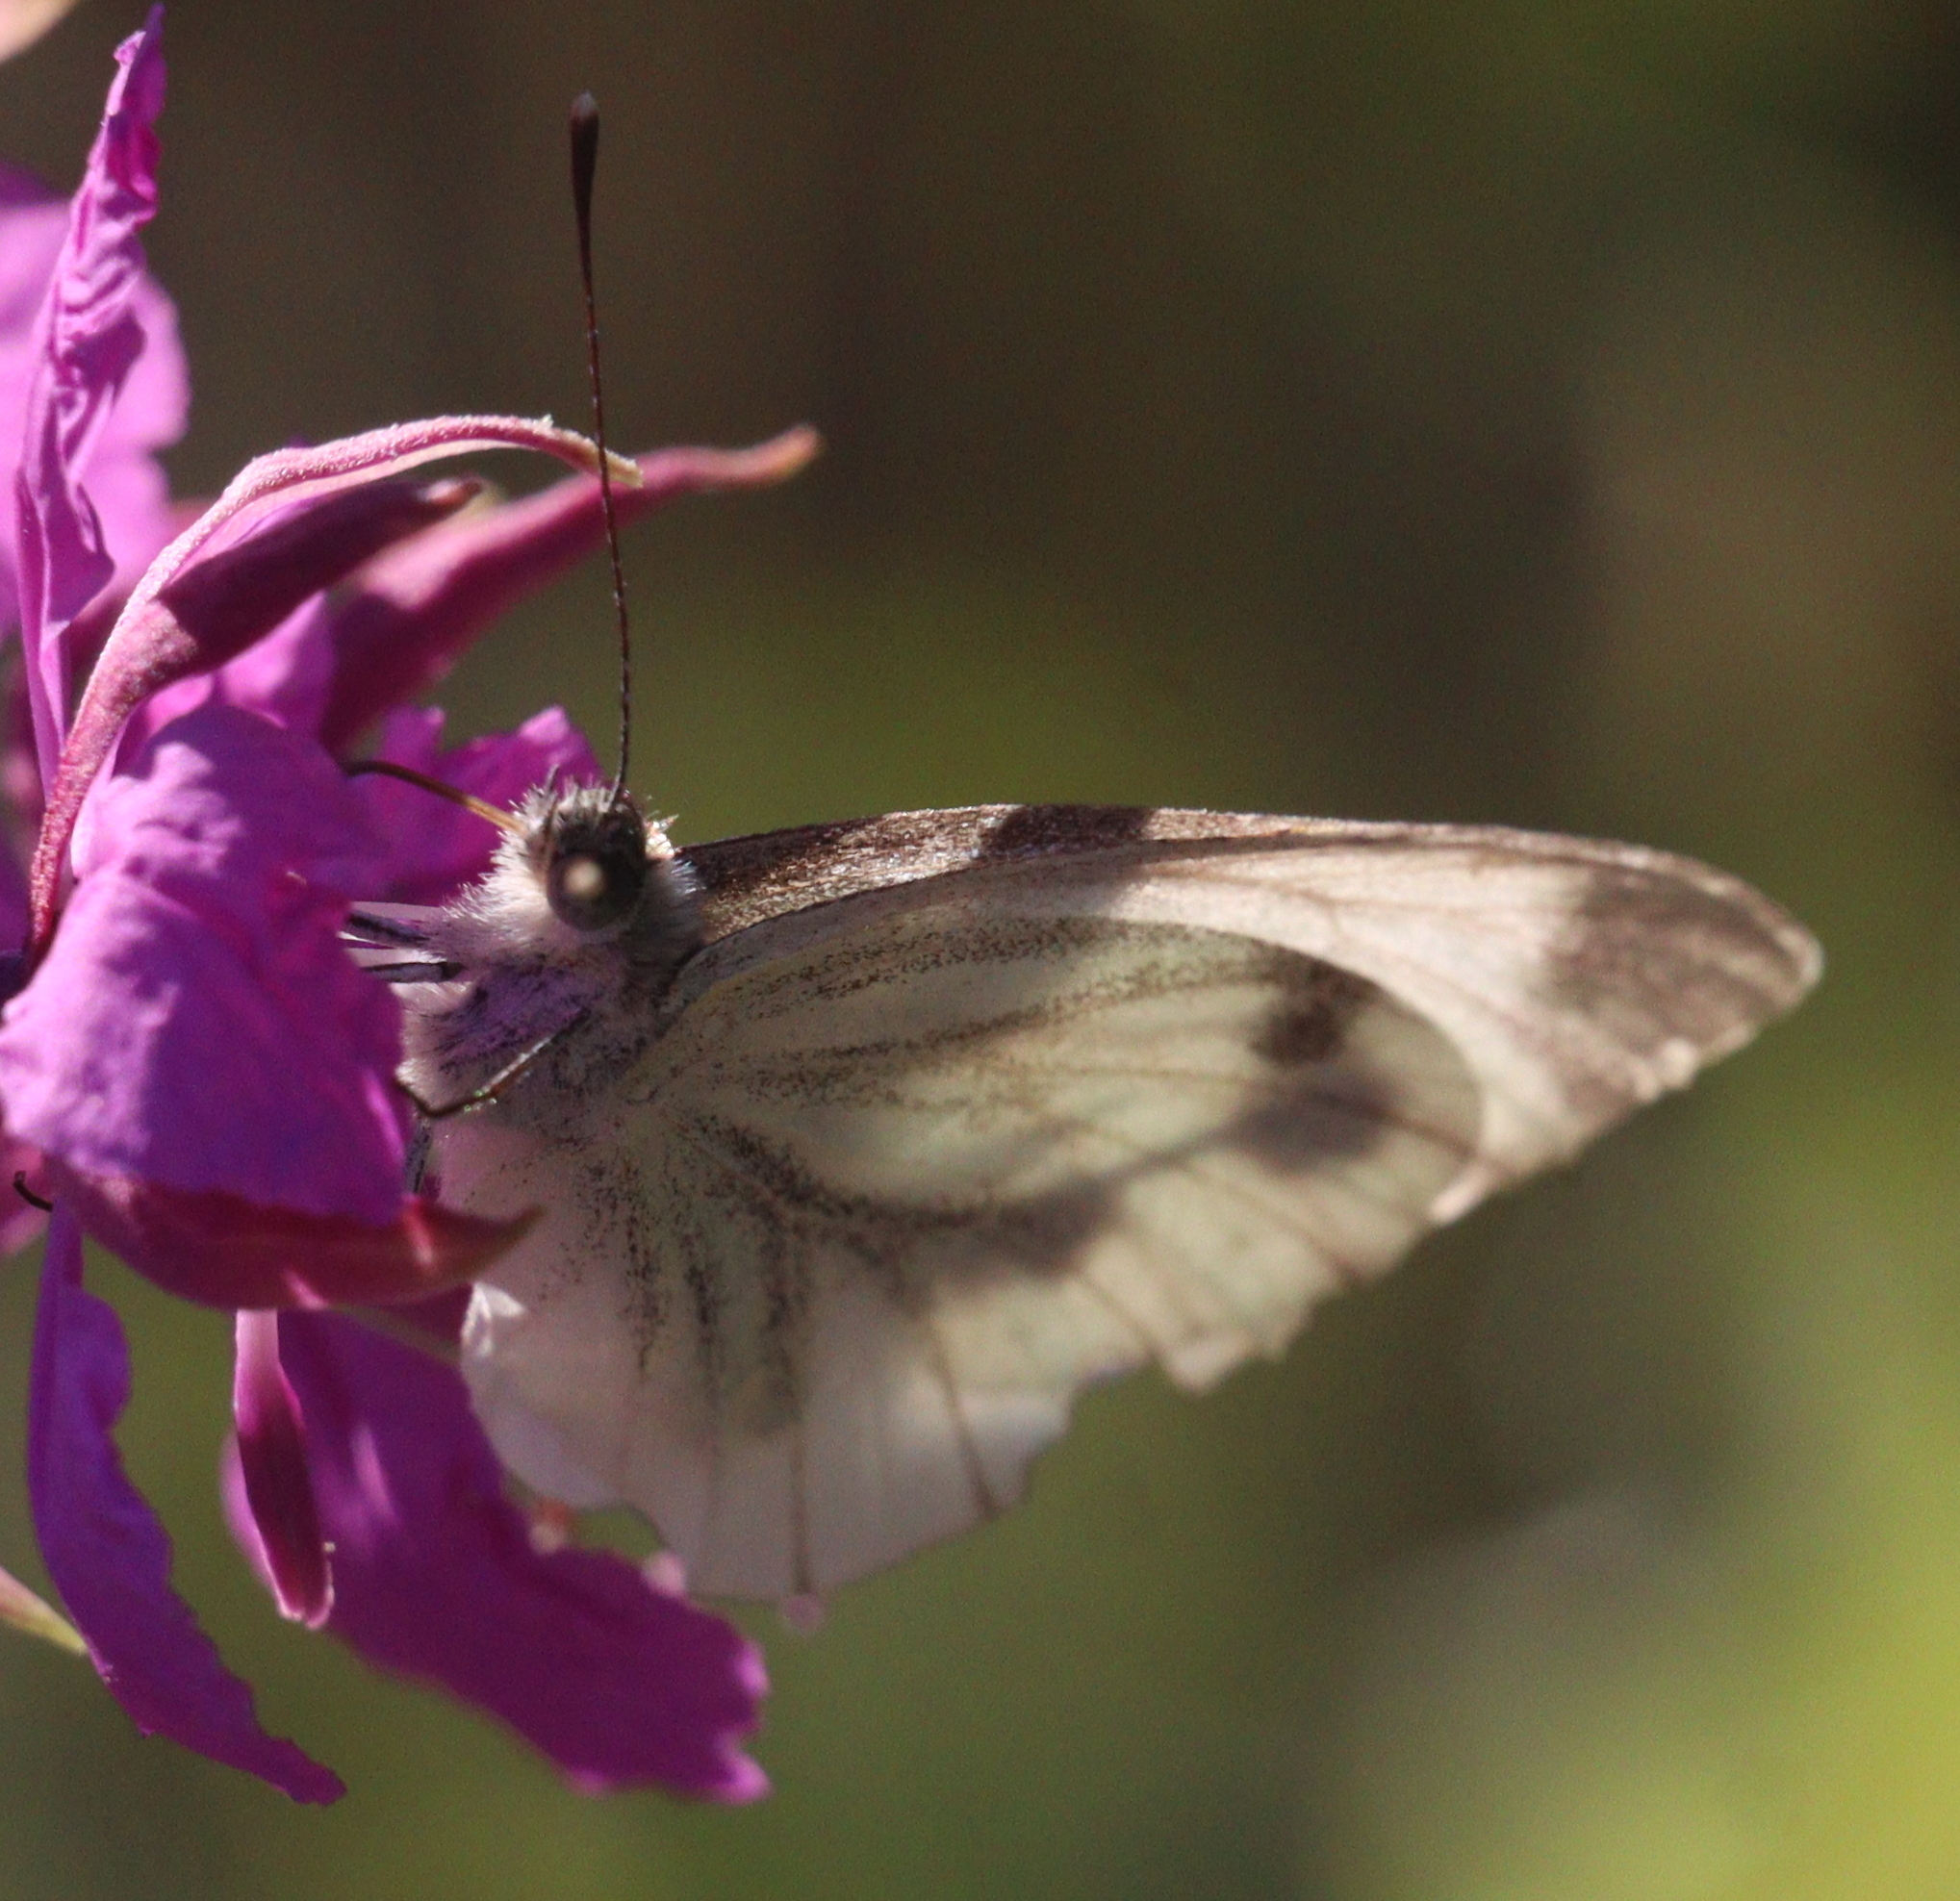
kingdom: Animalia
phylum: Arthropoda
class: Insecta
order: Lepidoptera
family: Pieridae
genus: Pieris
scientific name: Pieris napi
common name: Green-veined white
